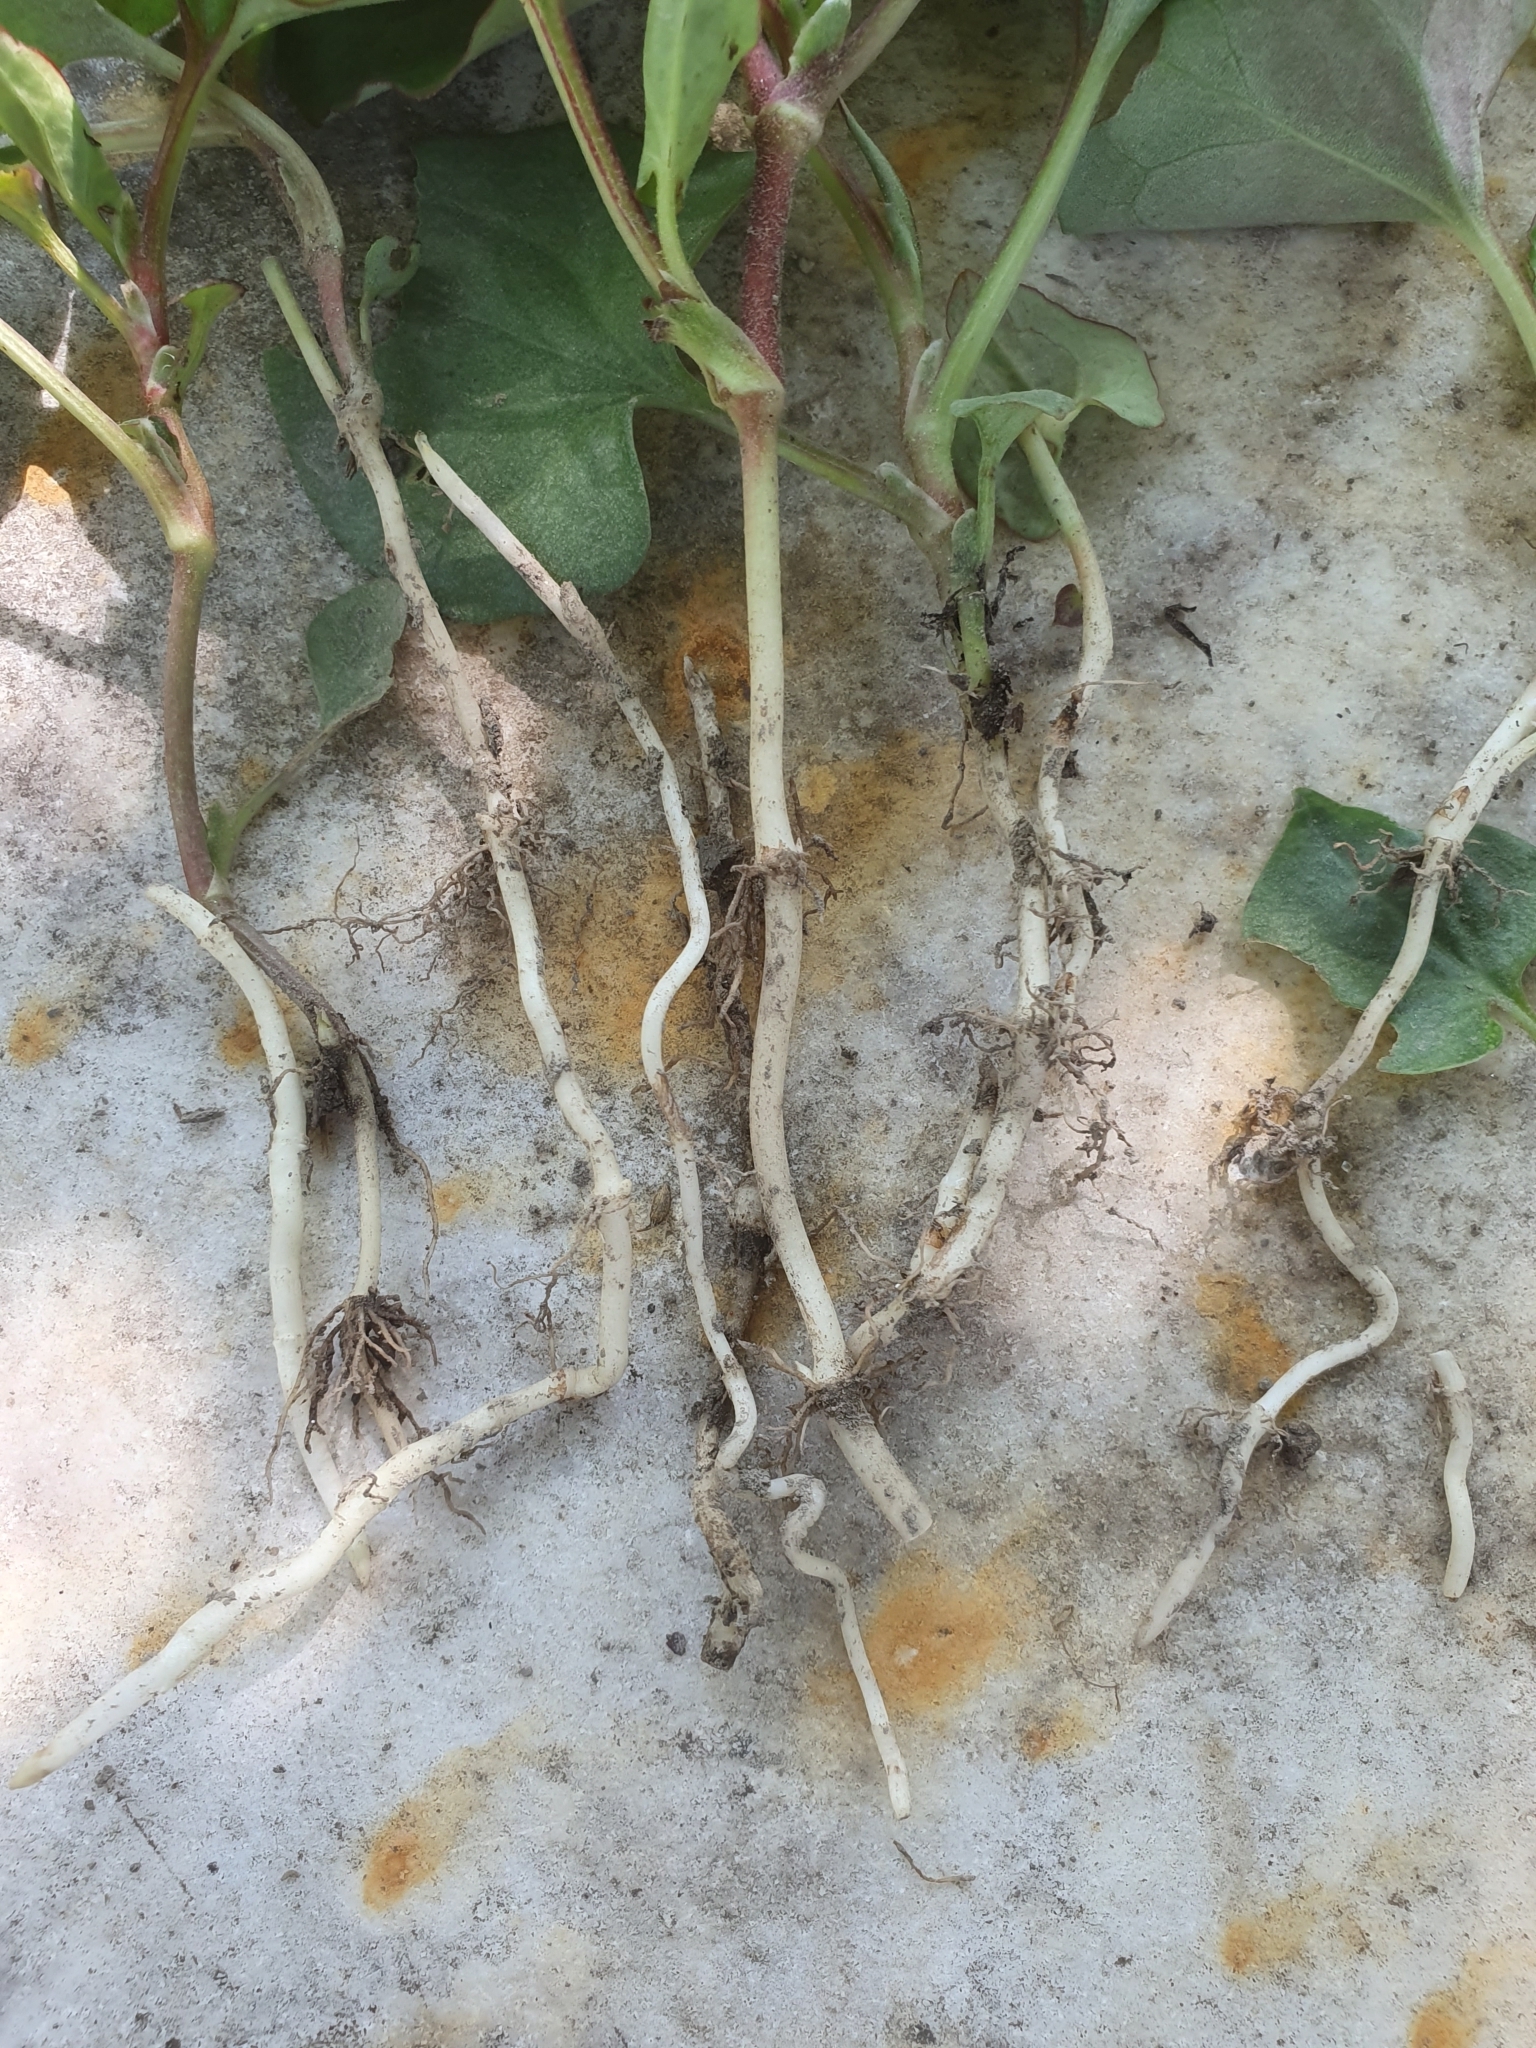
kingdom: Plantae
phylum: Tracheophyta
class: Magnoliopsida
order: Piperales
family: Saururaceae
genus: Houttuynia
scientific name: Houttuynia cordata
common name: Chameleon
